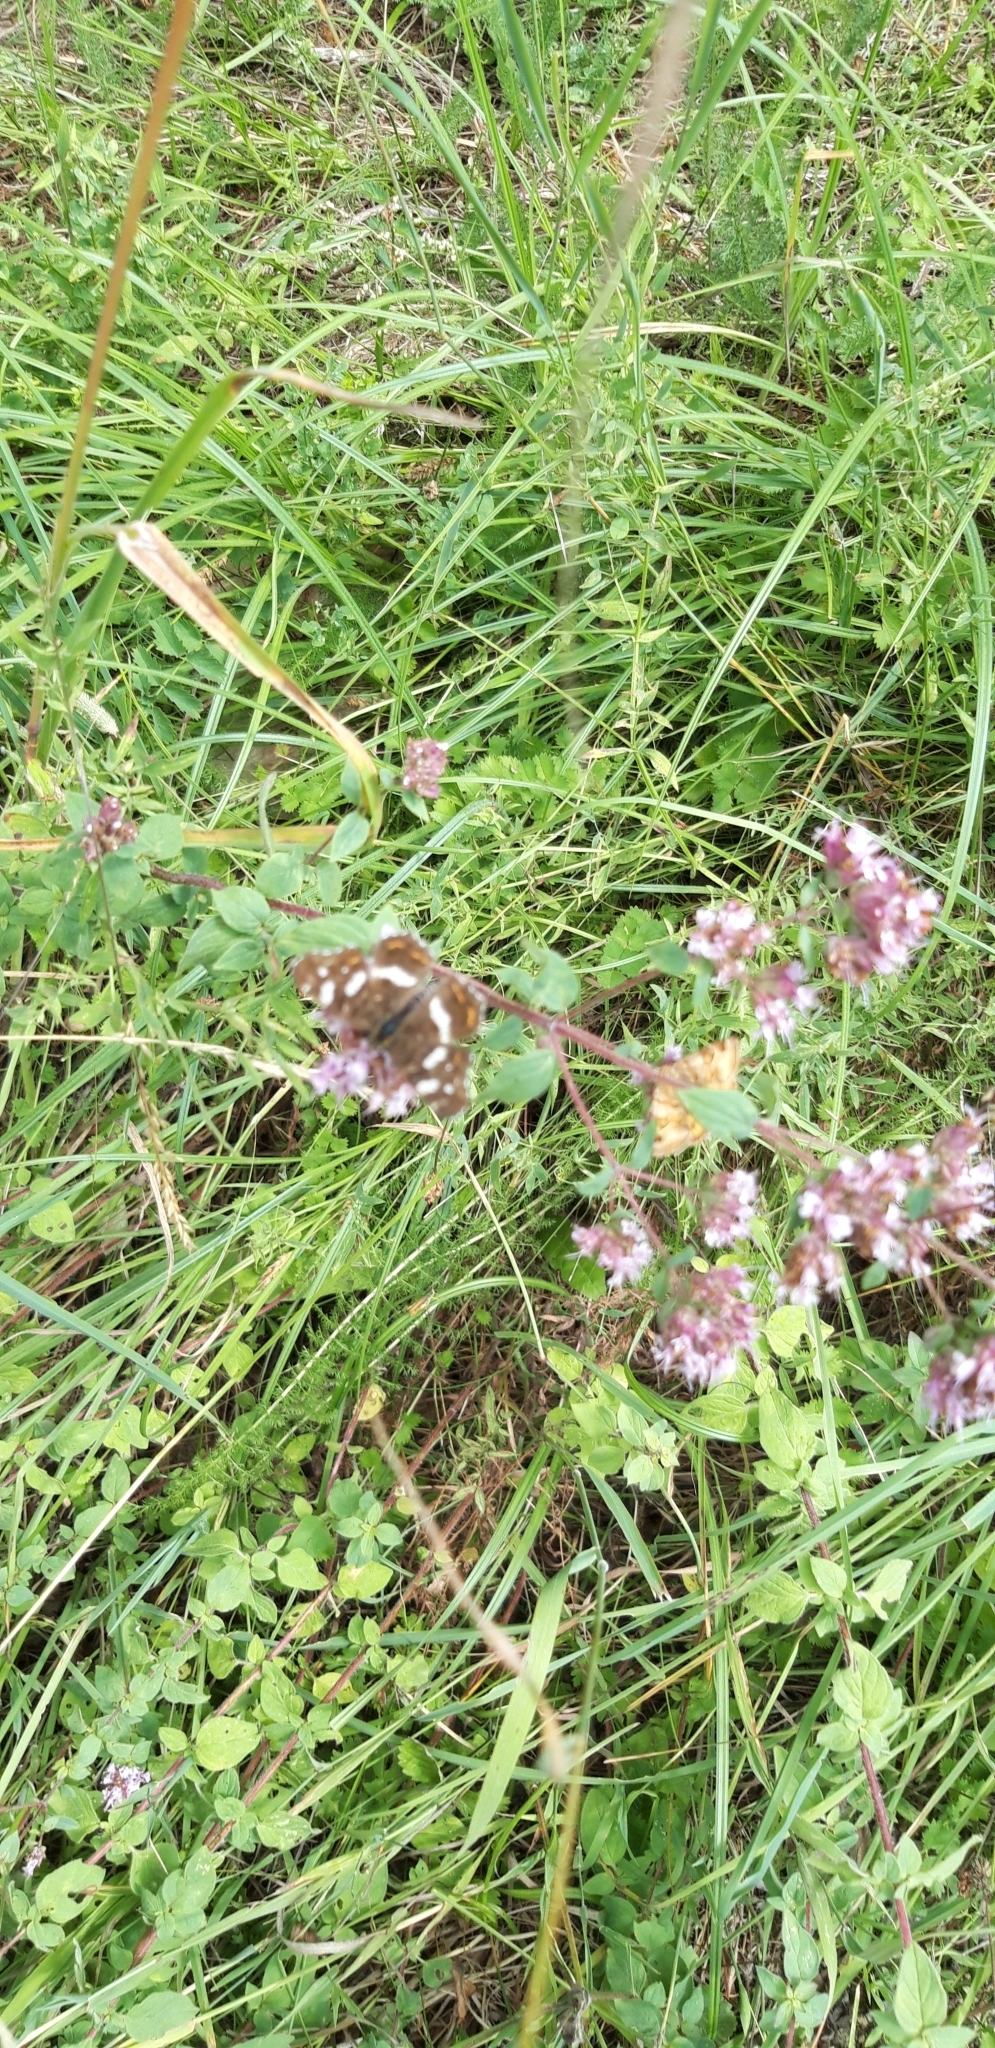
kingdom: Animalia
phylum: Arthropoda
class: Insecta
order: Lepidoptera
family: Nymphalidae
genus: Araschnia
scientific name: Araschnia levana
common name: Map butterfly
